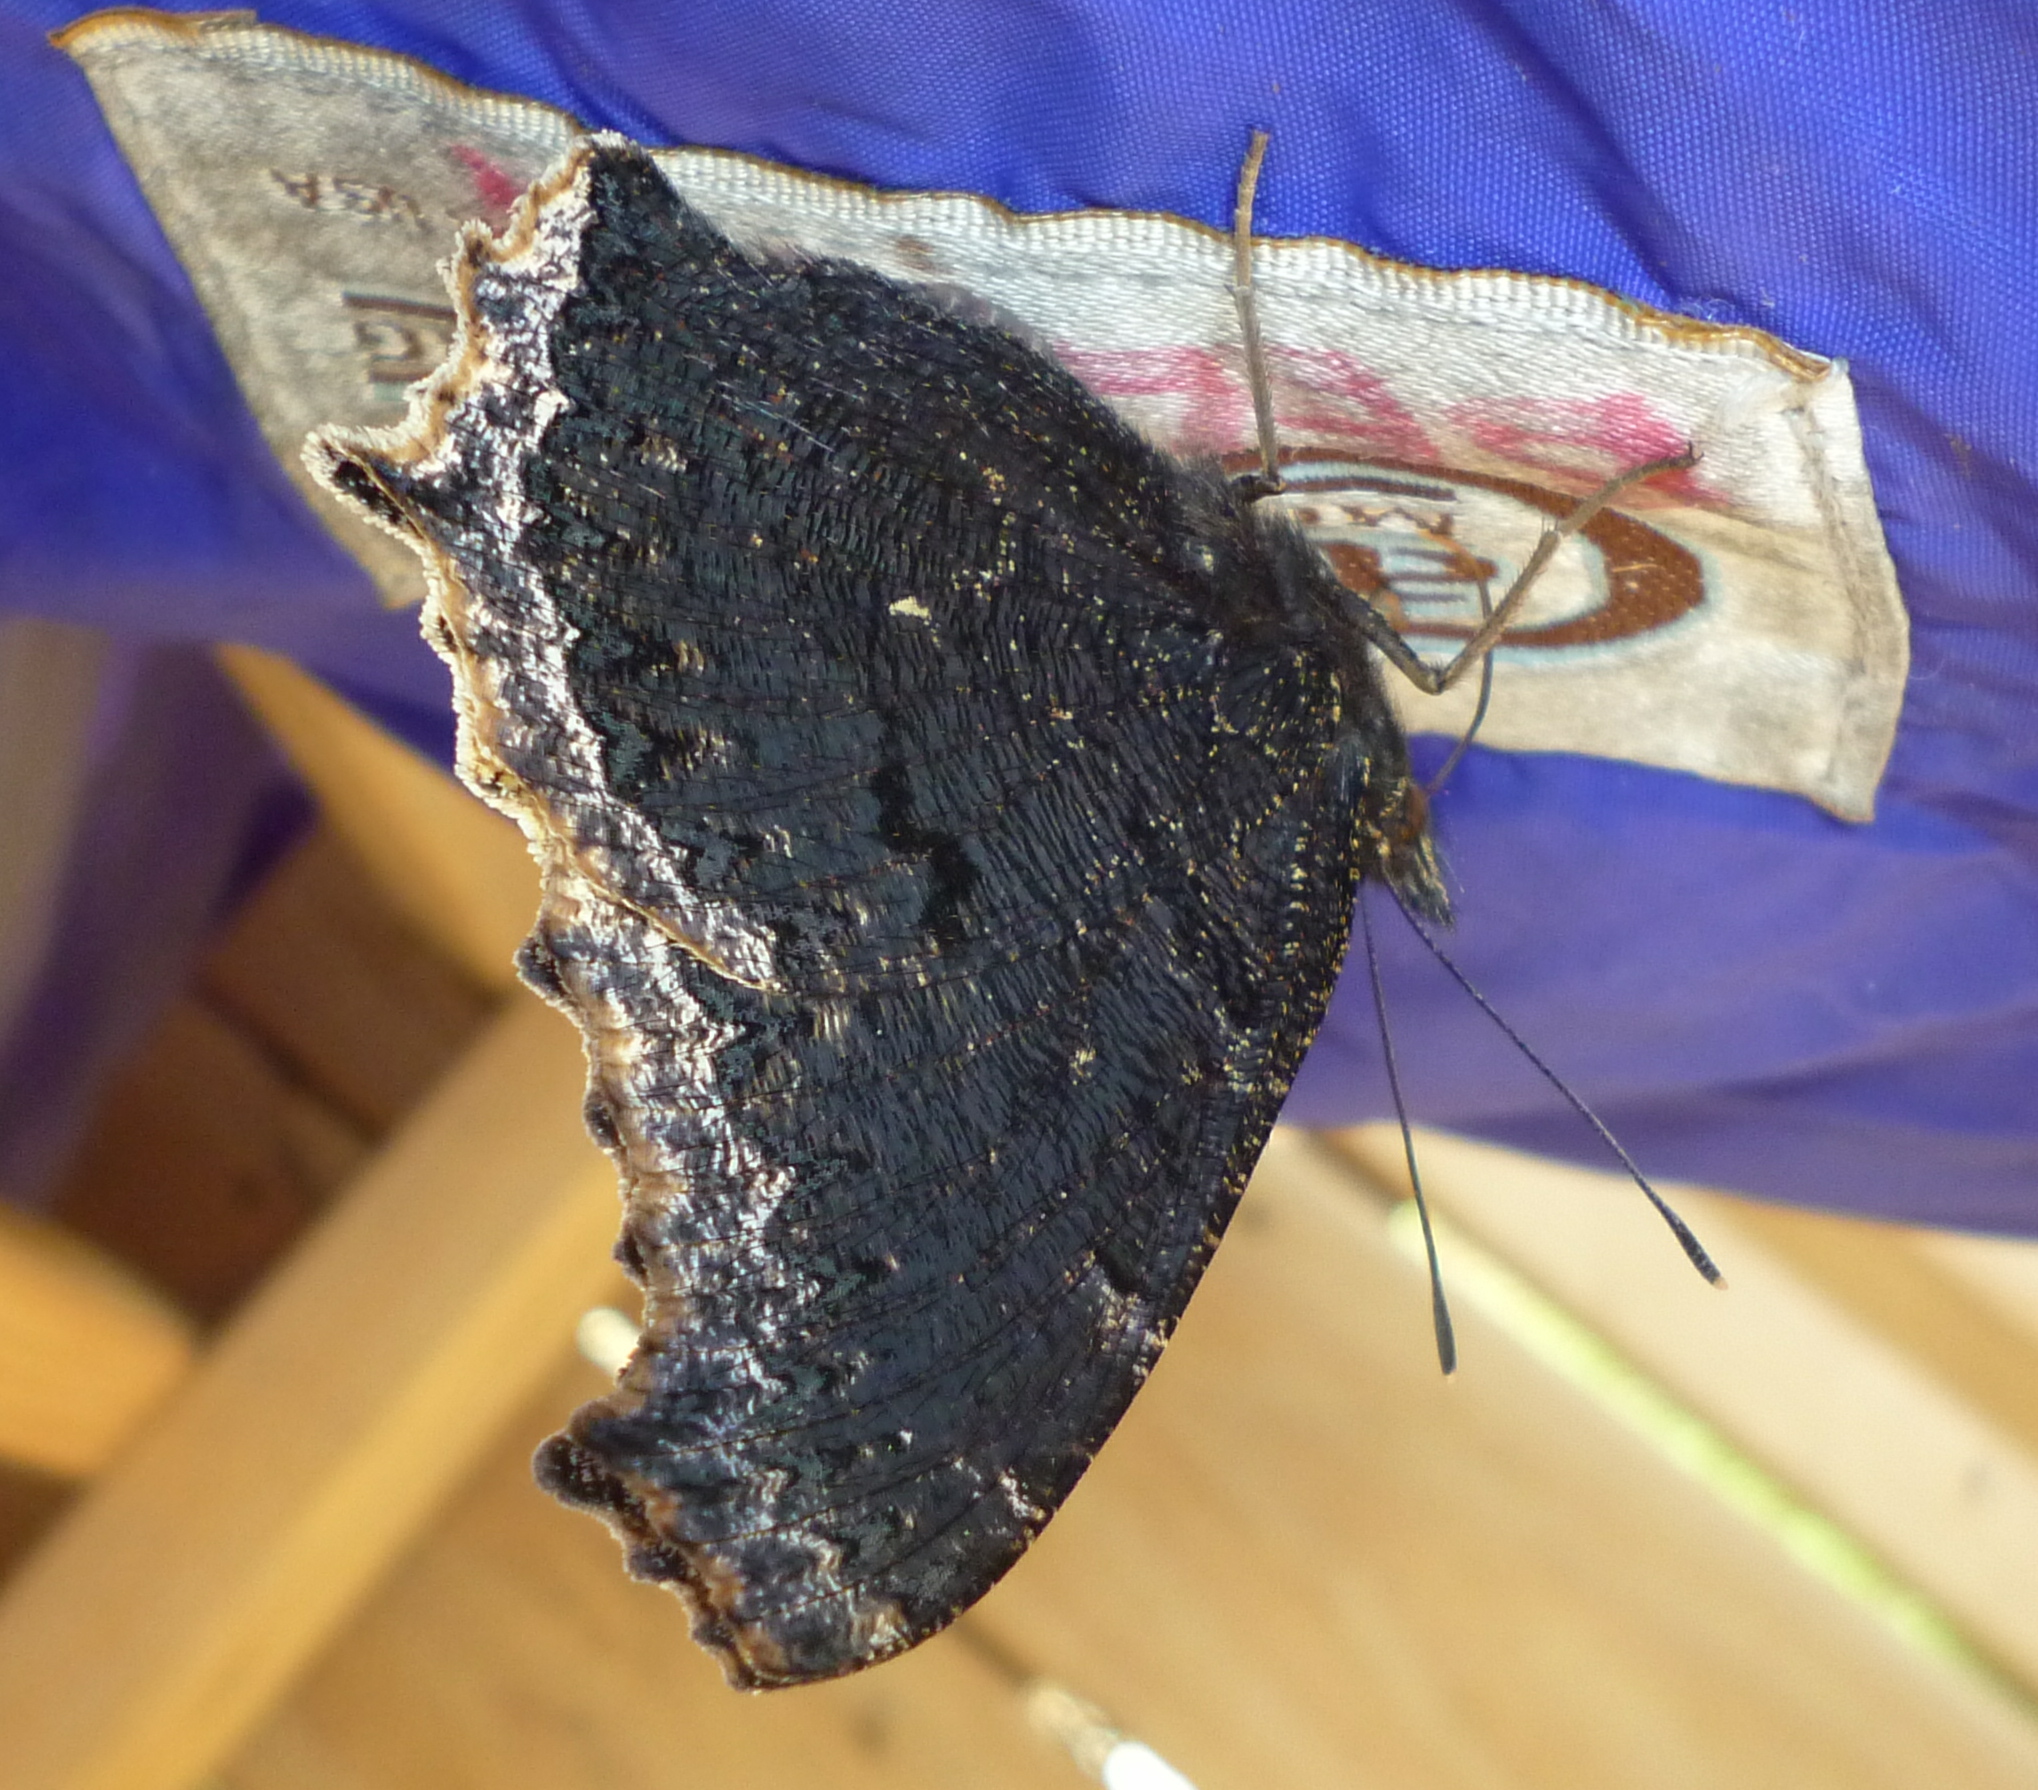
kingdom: Animalia
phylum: Arthropoda
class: Insecta
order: Lepidoptera
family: Nymphalidae
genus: Nymphalis
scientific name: Nymphalis antiopa
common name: Camberwell beauty
